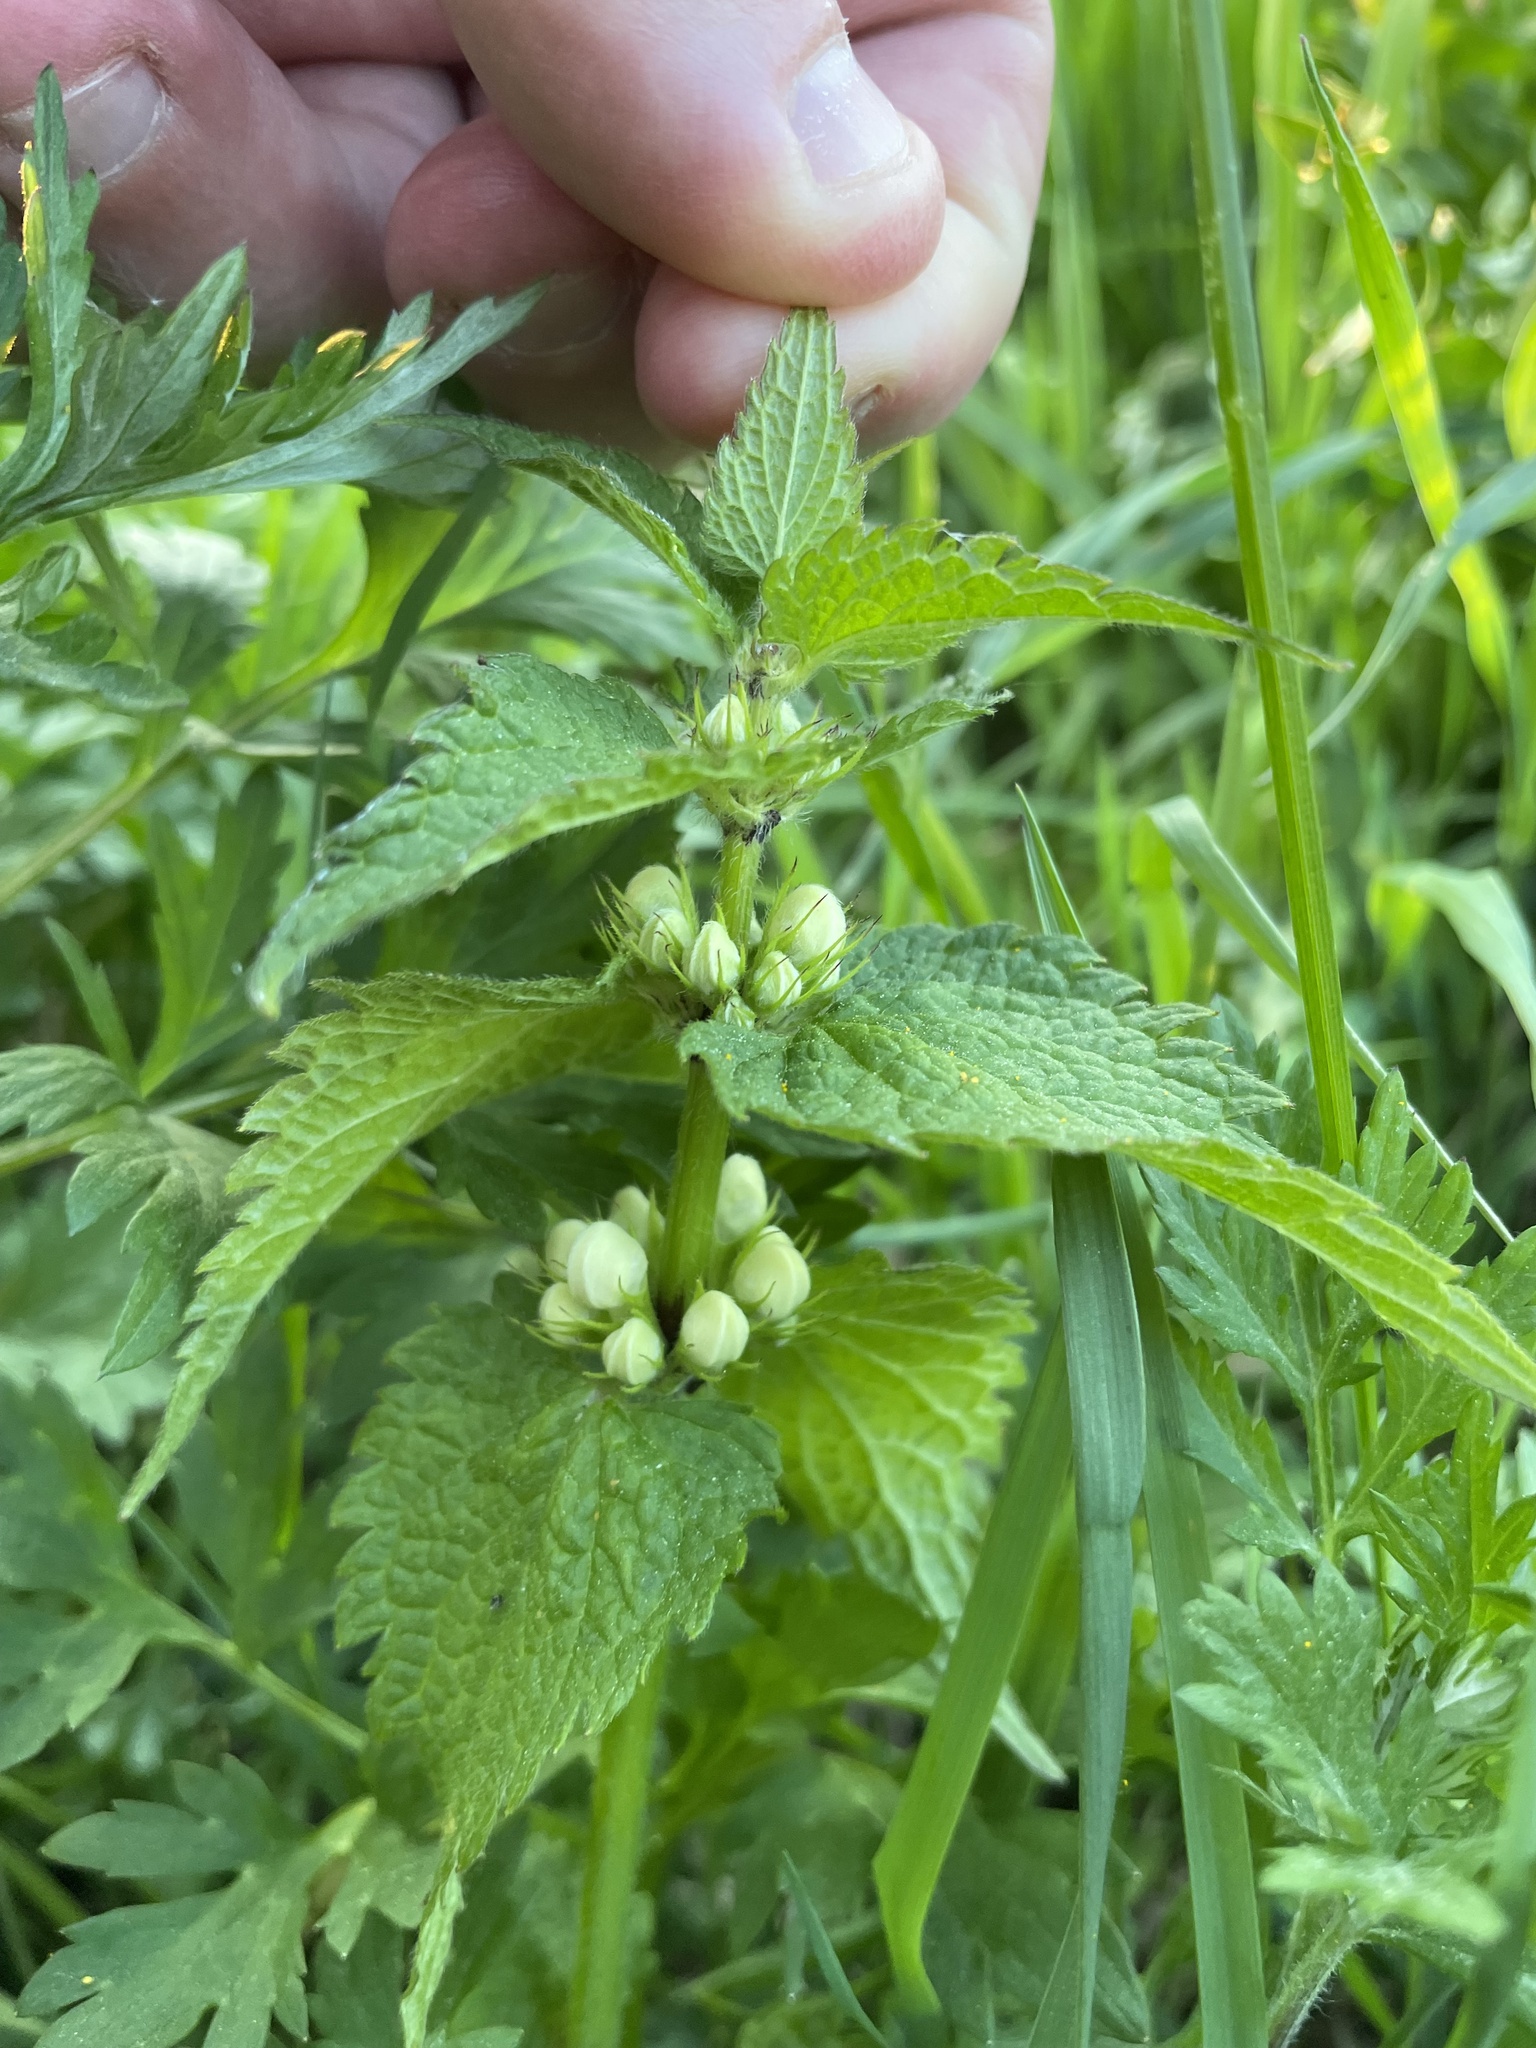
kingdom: Plantae
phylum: Tracheophyta
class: Magnoliopsida
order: Lamiales
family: Lamiaceae
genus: Lamium
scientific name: Lamium album
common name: White dead-nettle
